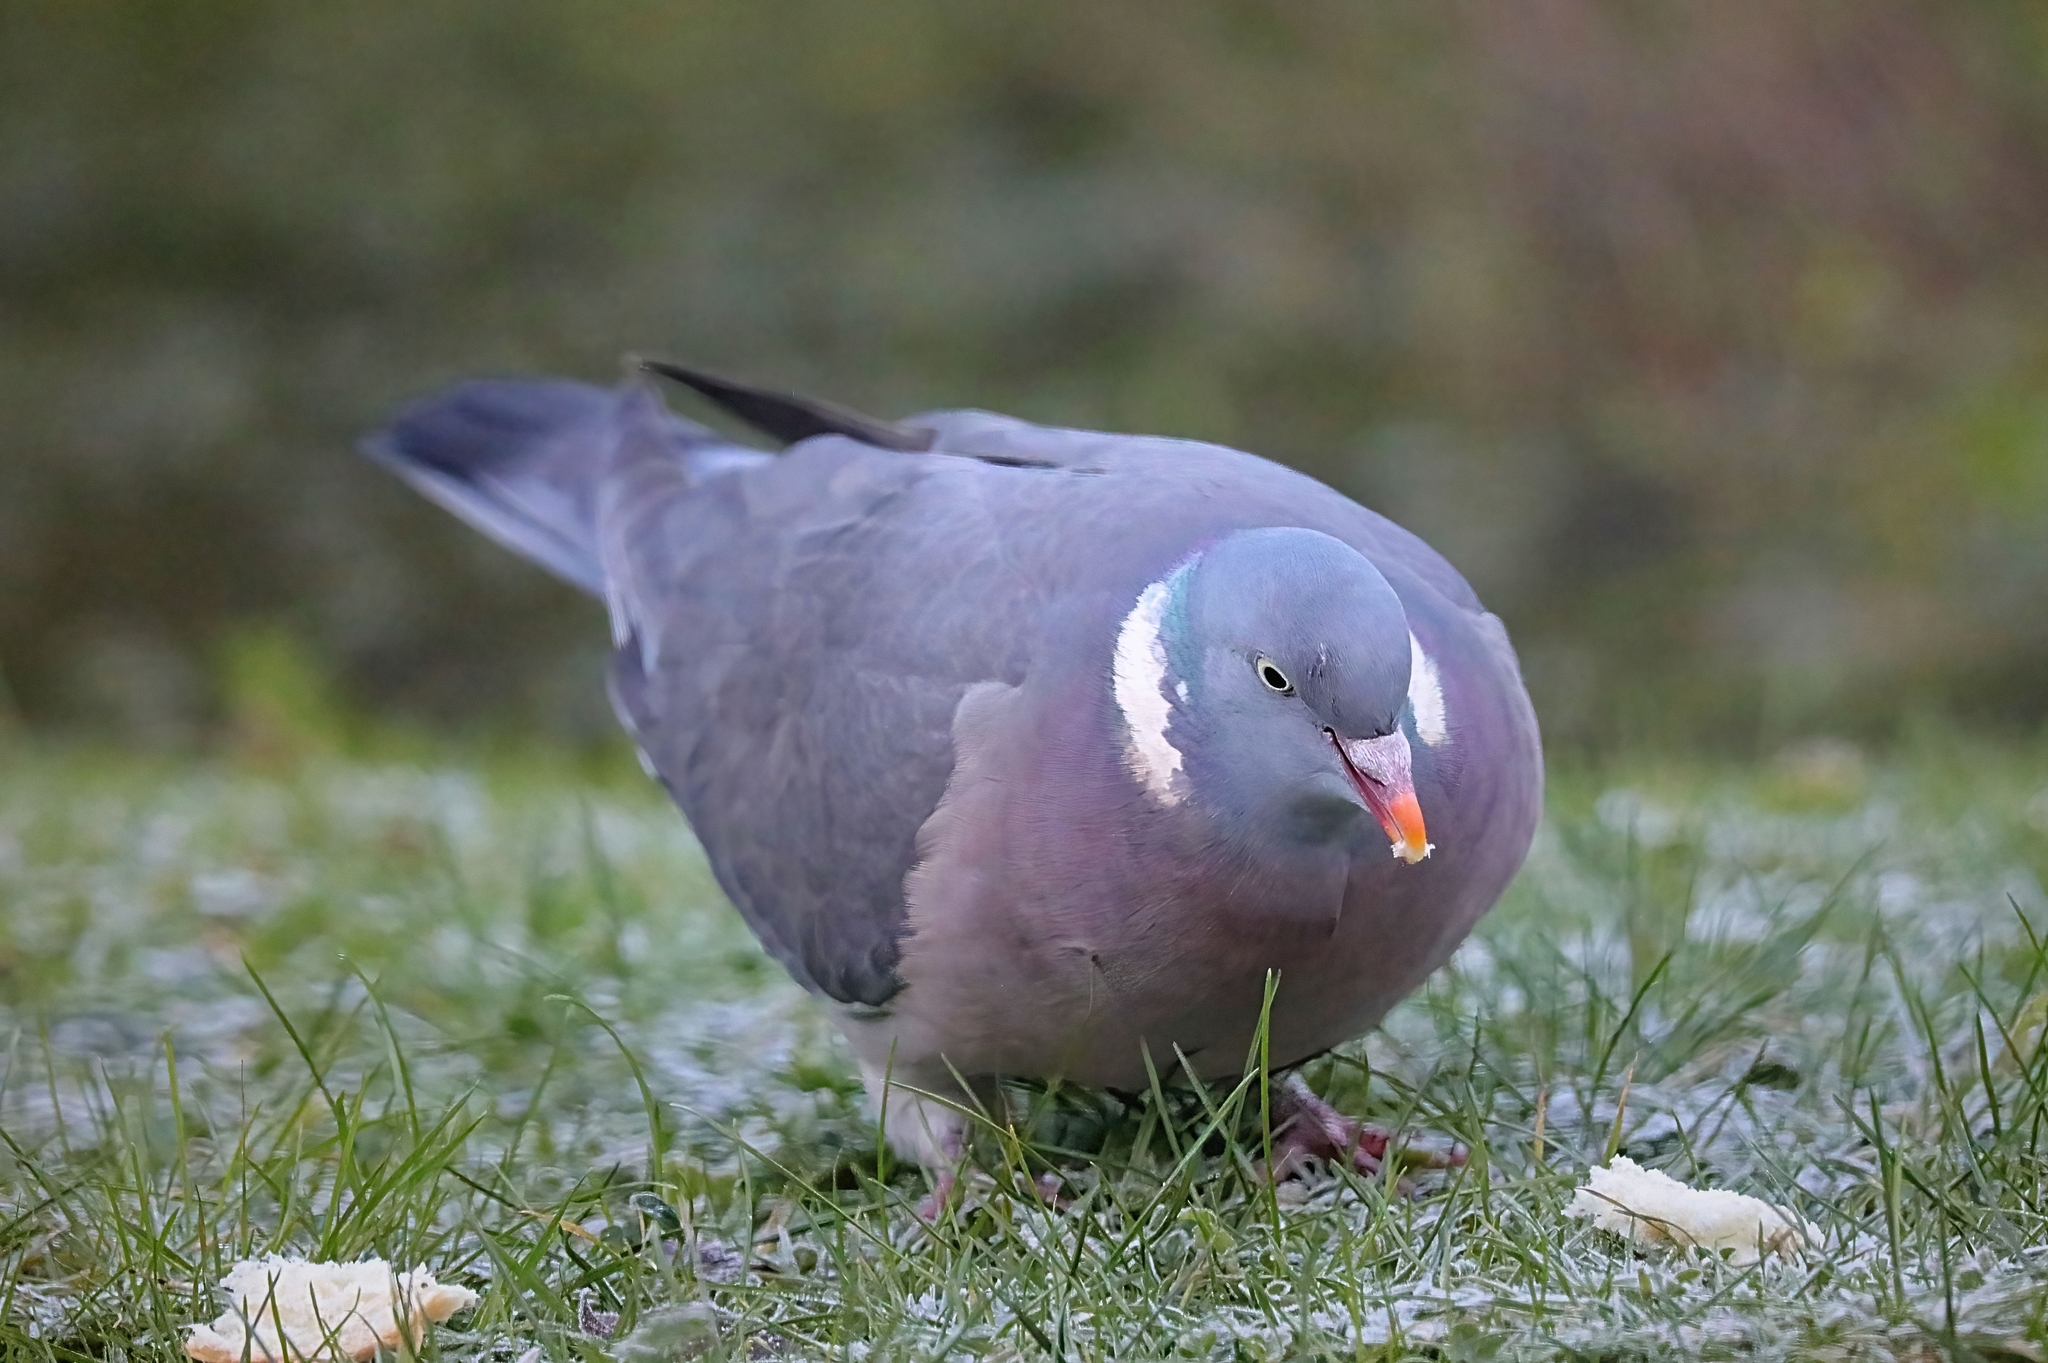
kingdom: Animalia
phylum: Chordata
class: Aves
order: Columbiformes
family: Columbidae
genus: Columba
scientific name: Columba palumbus
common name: Common wood pigeon
